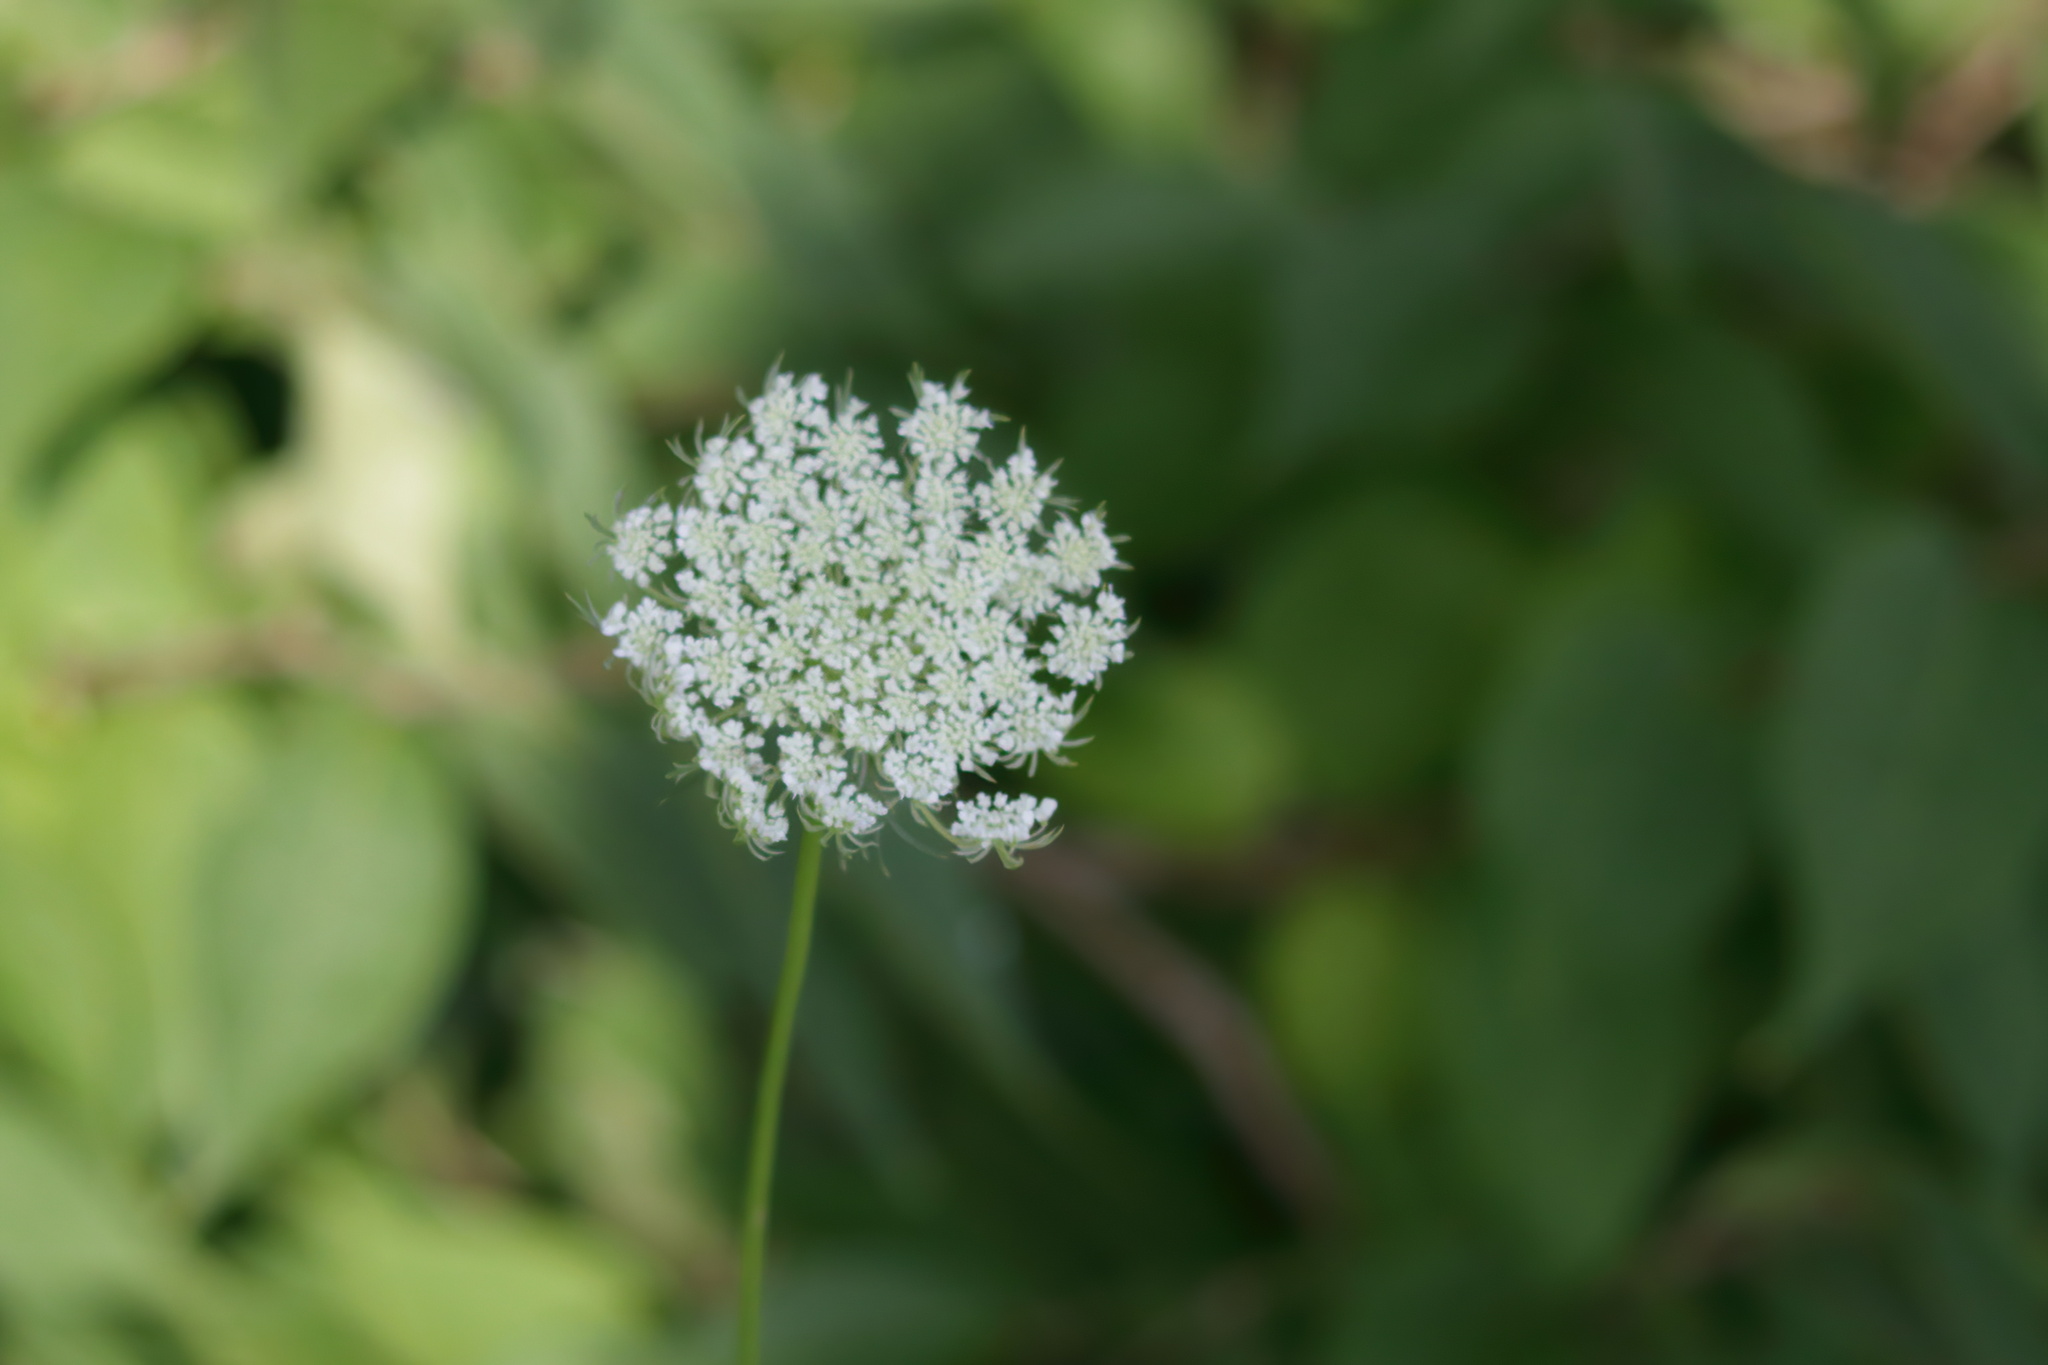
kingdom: Plantae
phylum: Tracheophyta
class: Magnoliopsida
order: Apiales
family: Apiaceae
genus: Daucus
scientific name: Daucus carota
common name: Wild carrot
